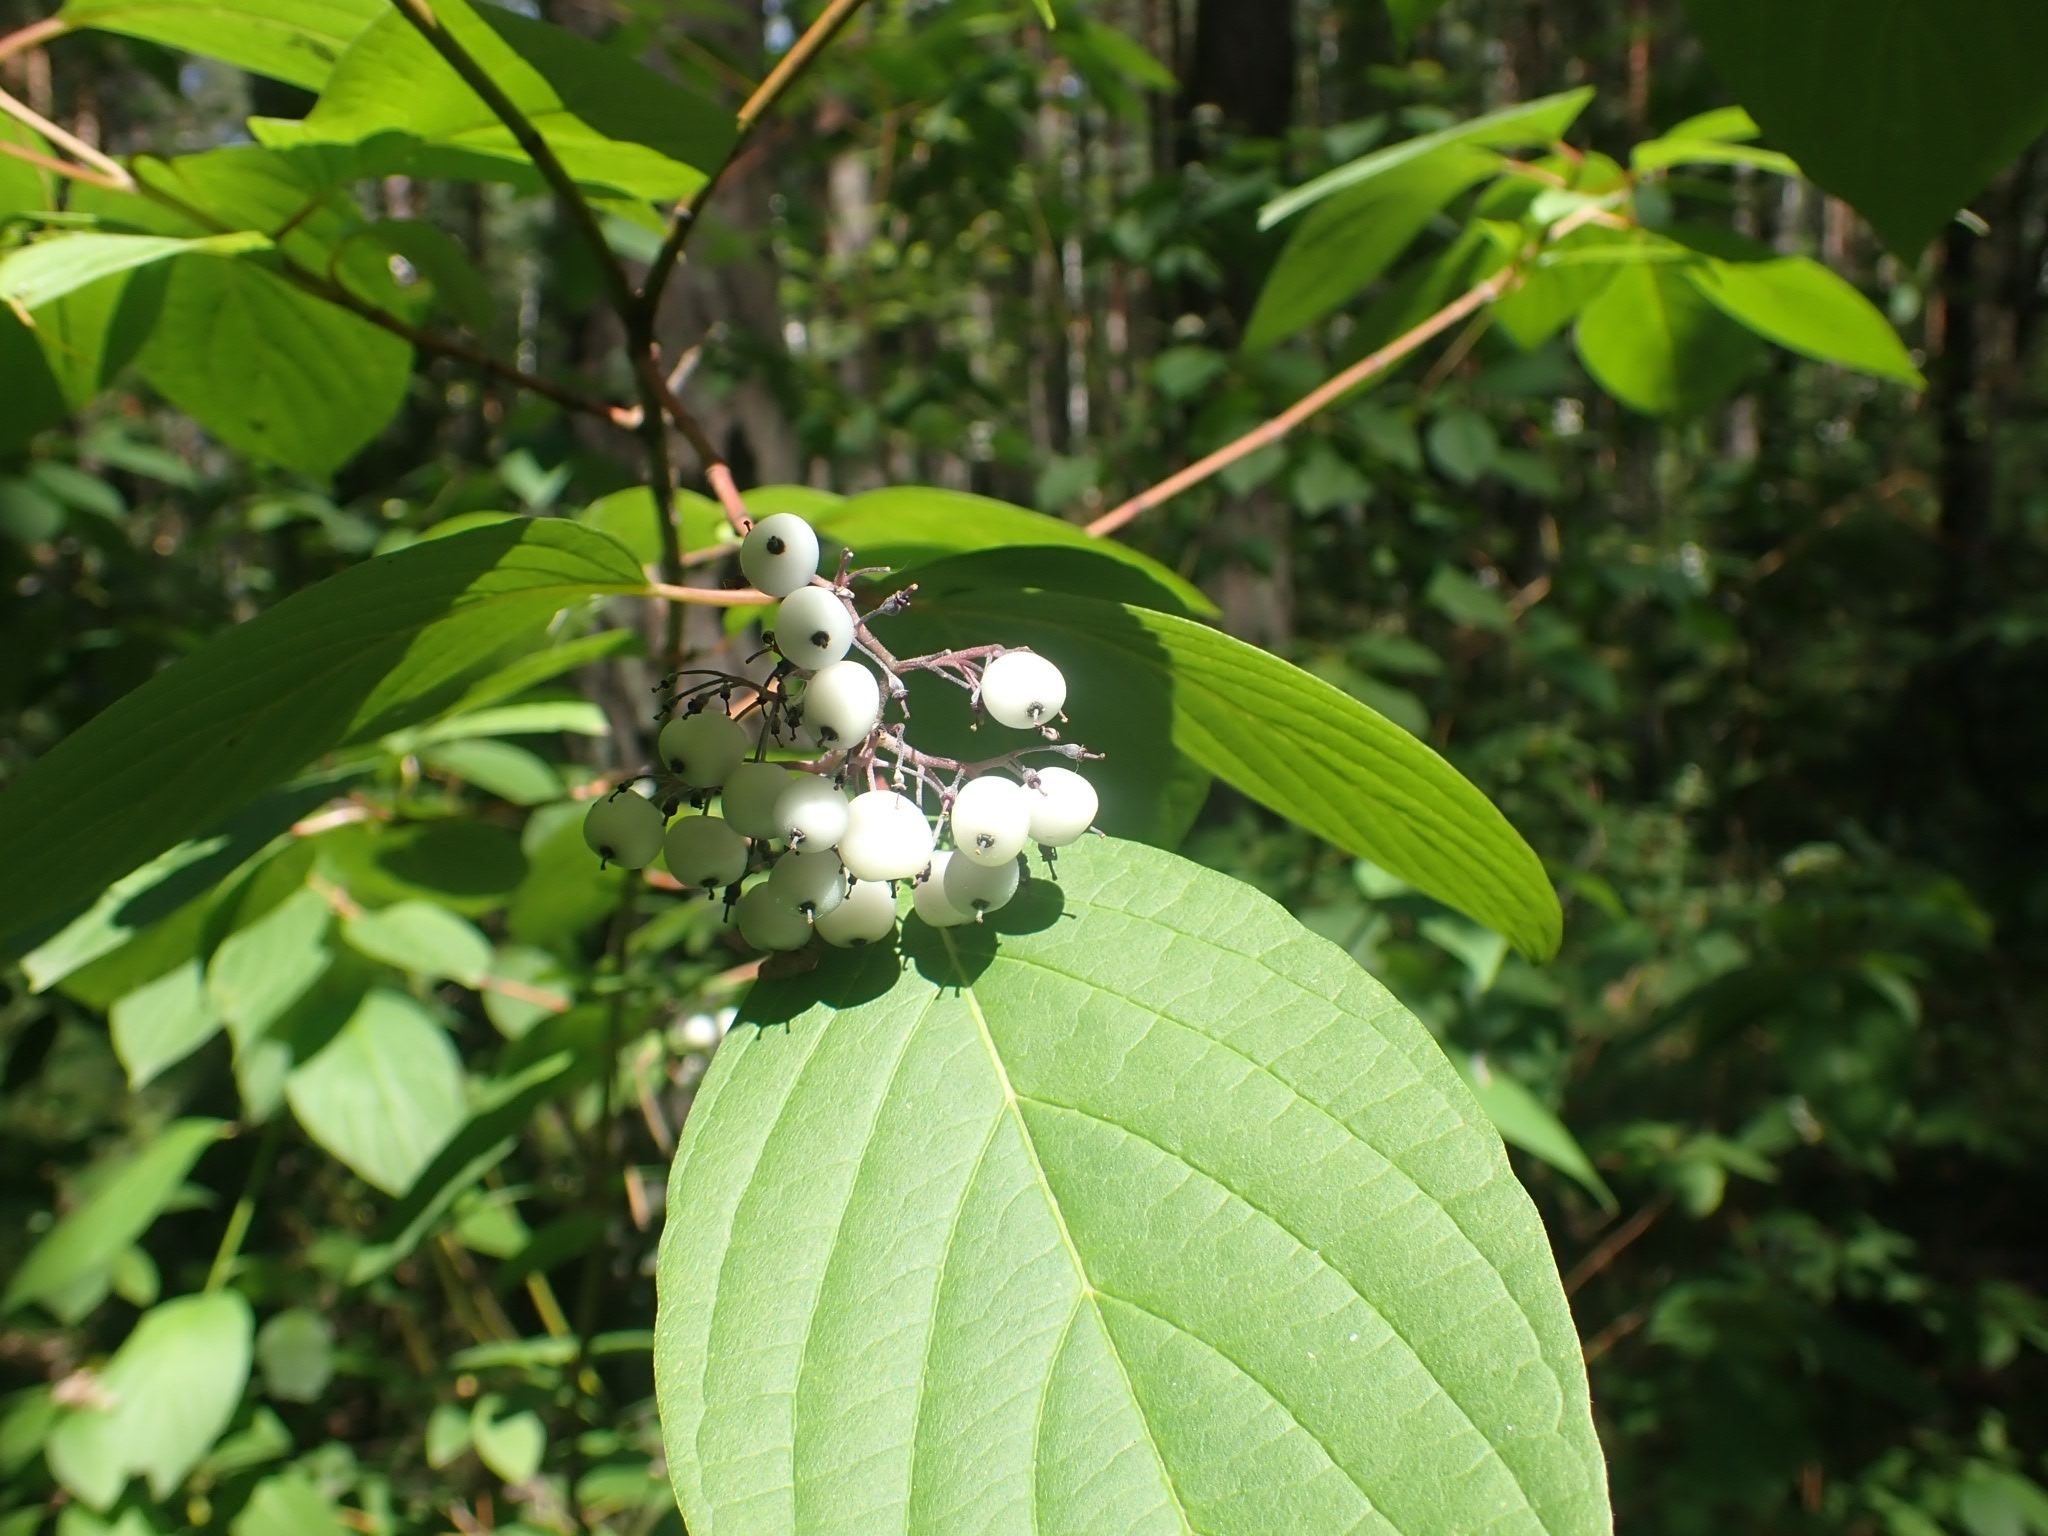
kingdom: Plantae
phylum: Tracheophyta
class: Magnoliopsida
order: Cornales
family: Cornaceae
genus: Cornus
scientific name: Cornus alba
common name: White dogwood
